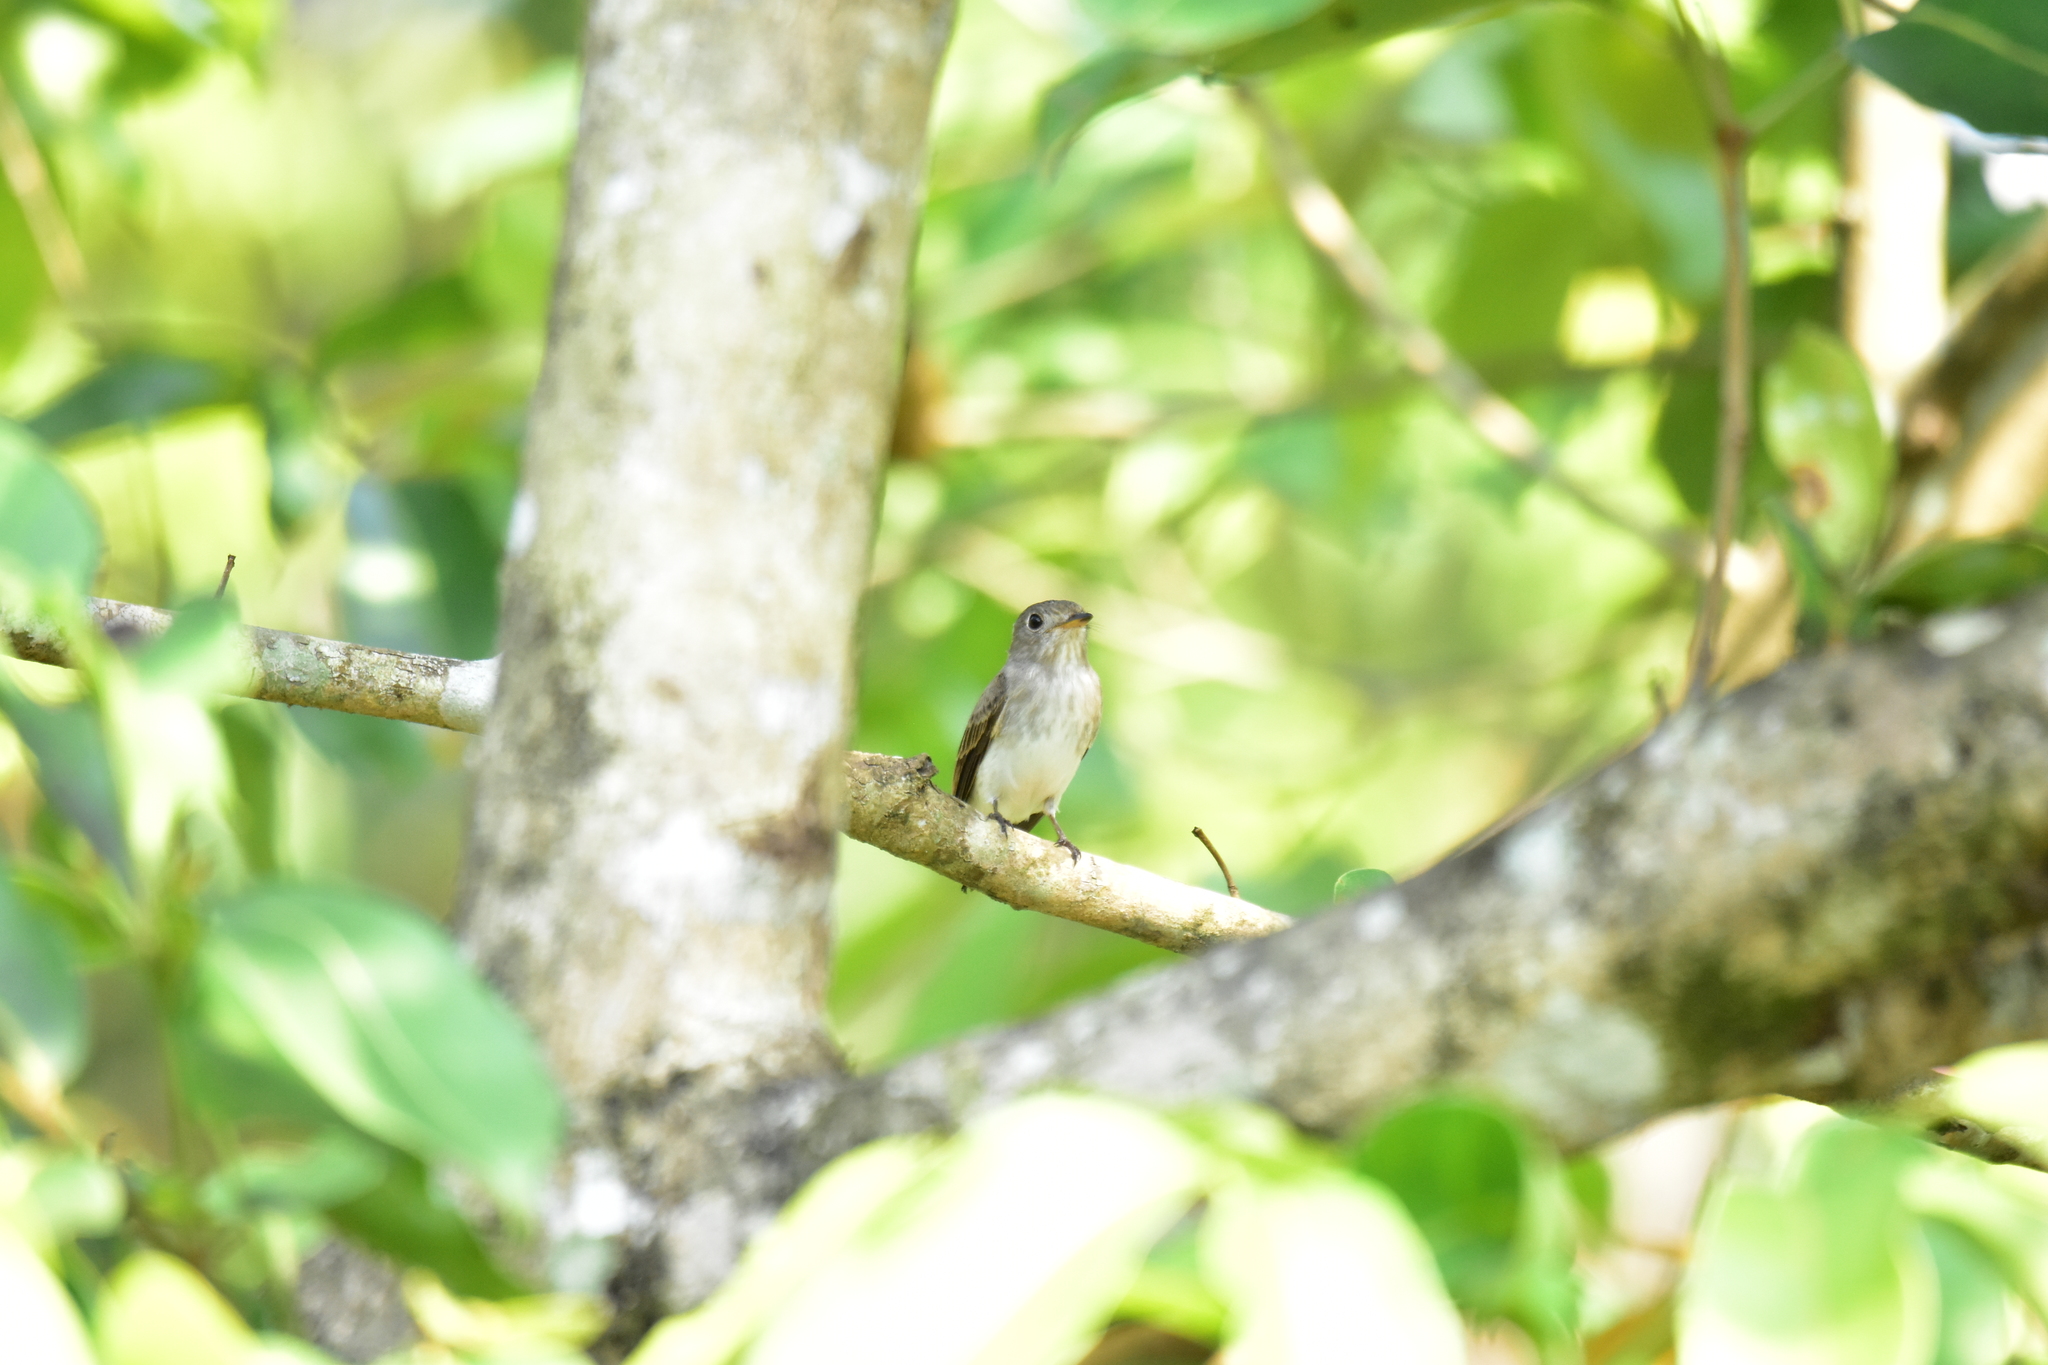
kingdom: Animalia
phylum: Chordata
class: Aves
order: Passeriformes
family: Muscicapidae
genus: Muscicapa
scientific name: Muscicapa latirostris
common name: Asian brown flycatcher
